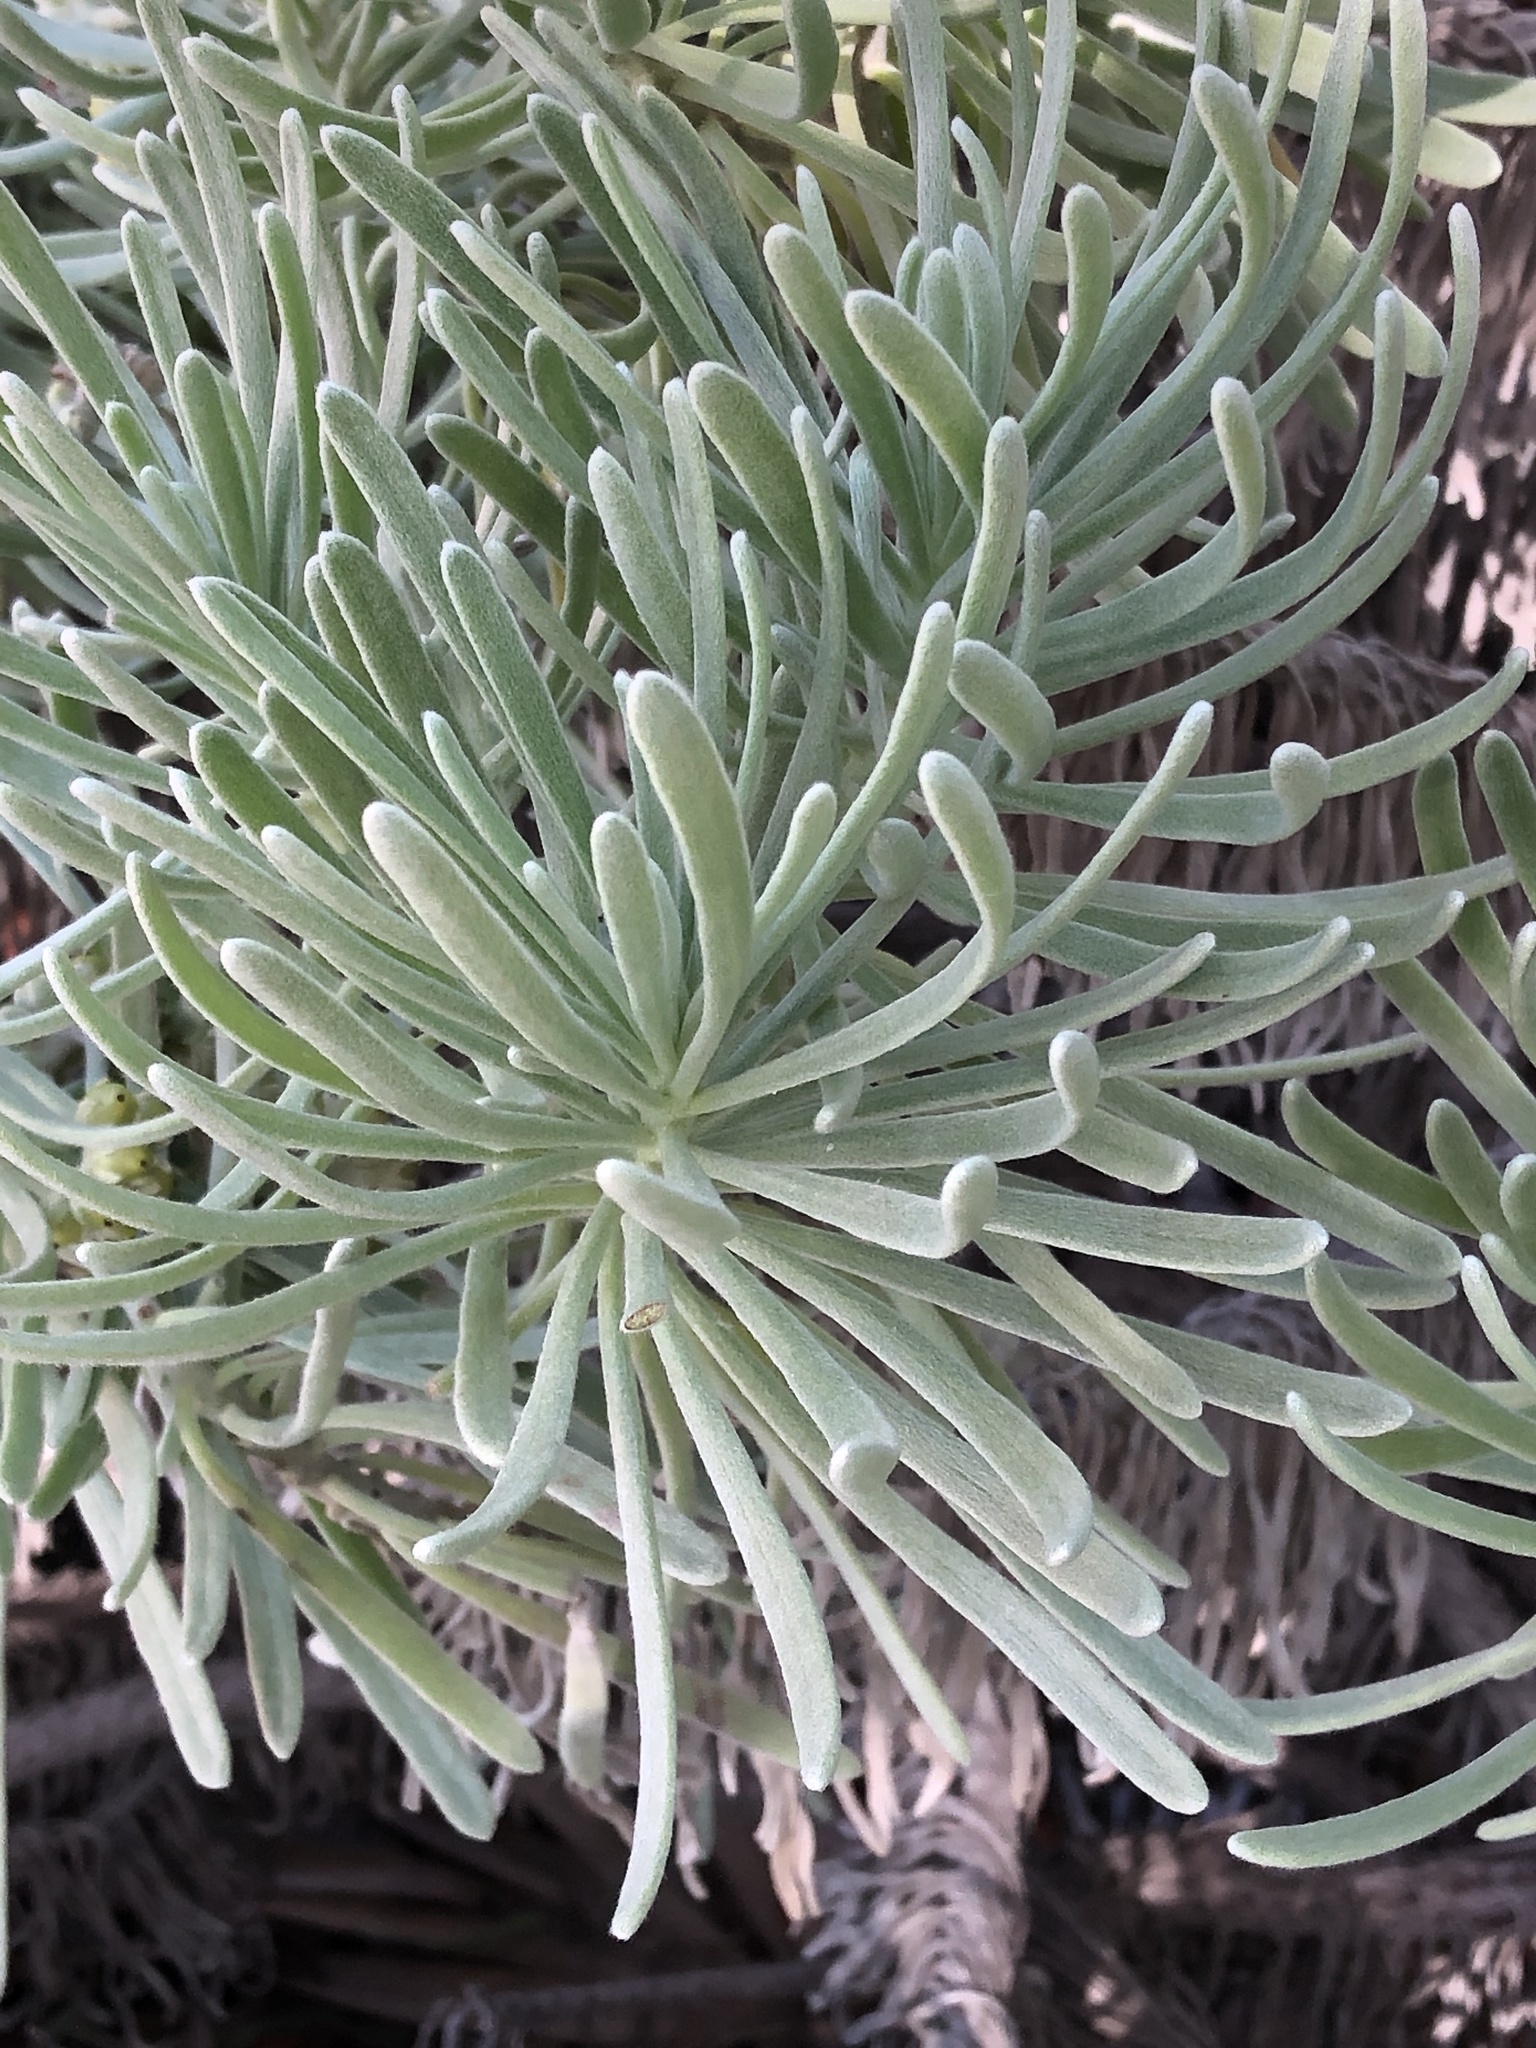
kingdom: Plantae
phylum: Tracheophyta
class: Magnoliopsida
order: Boraginales
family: Heliotropiaceae
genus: Tournefortia
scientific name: Tournefortia gnaphalodes
